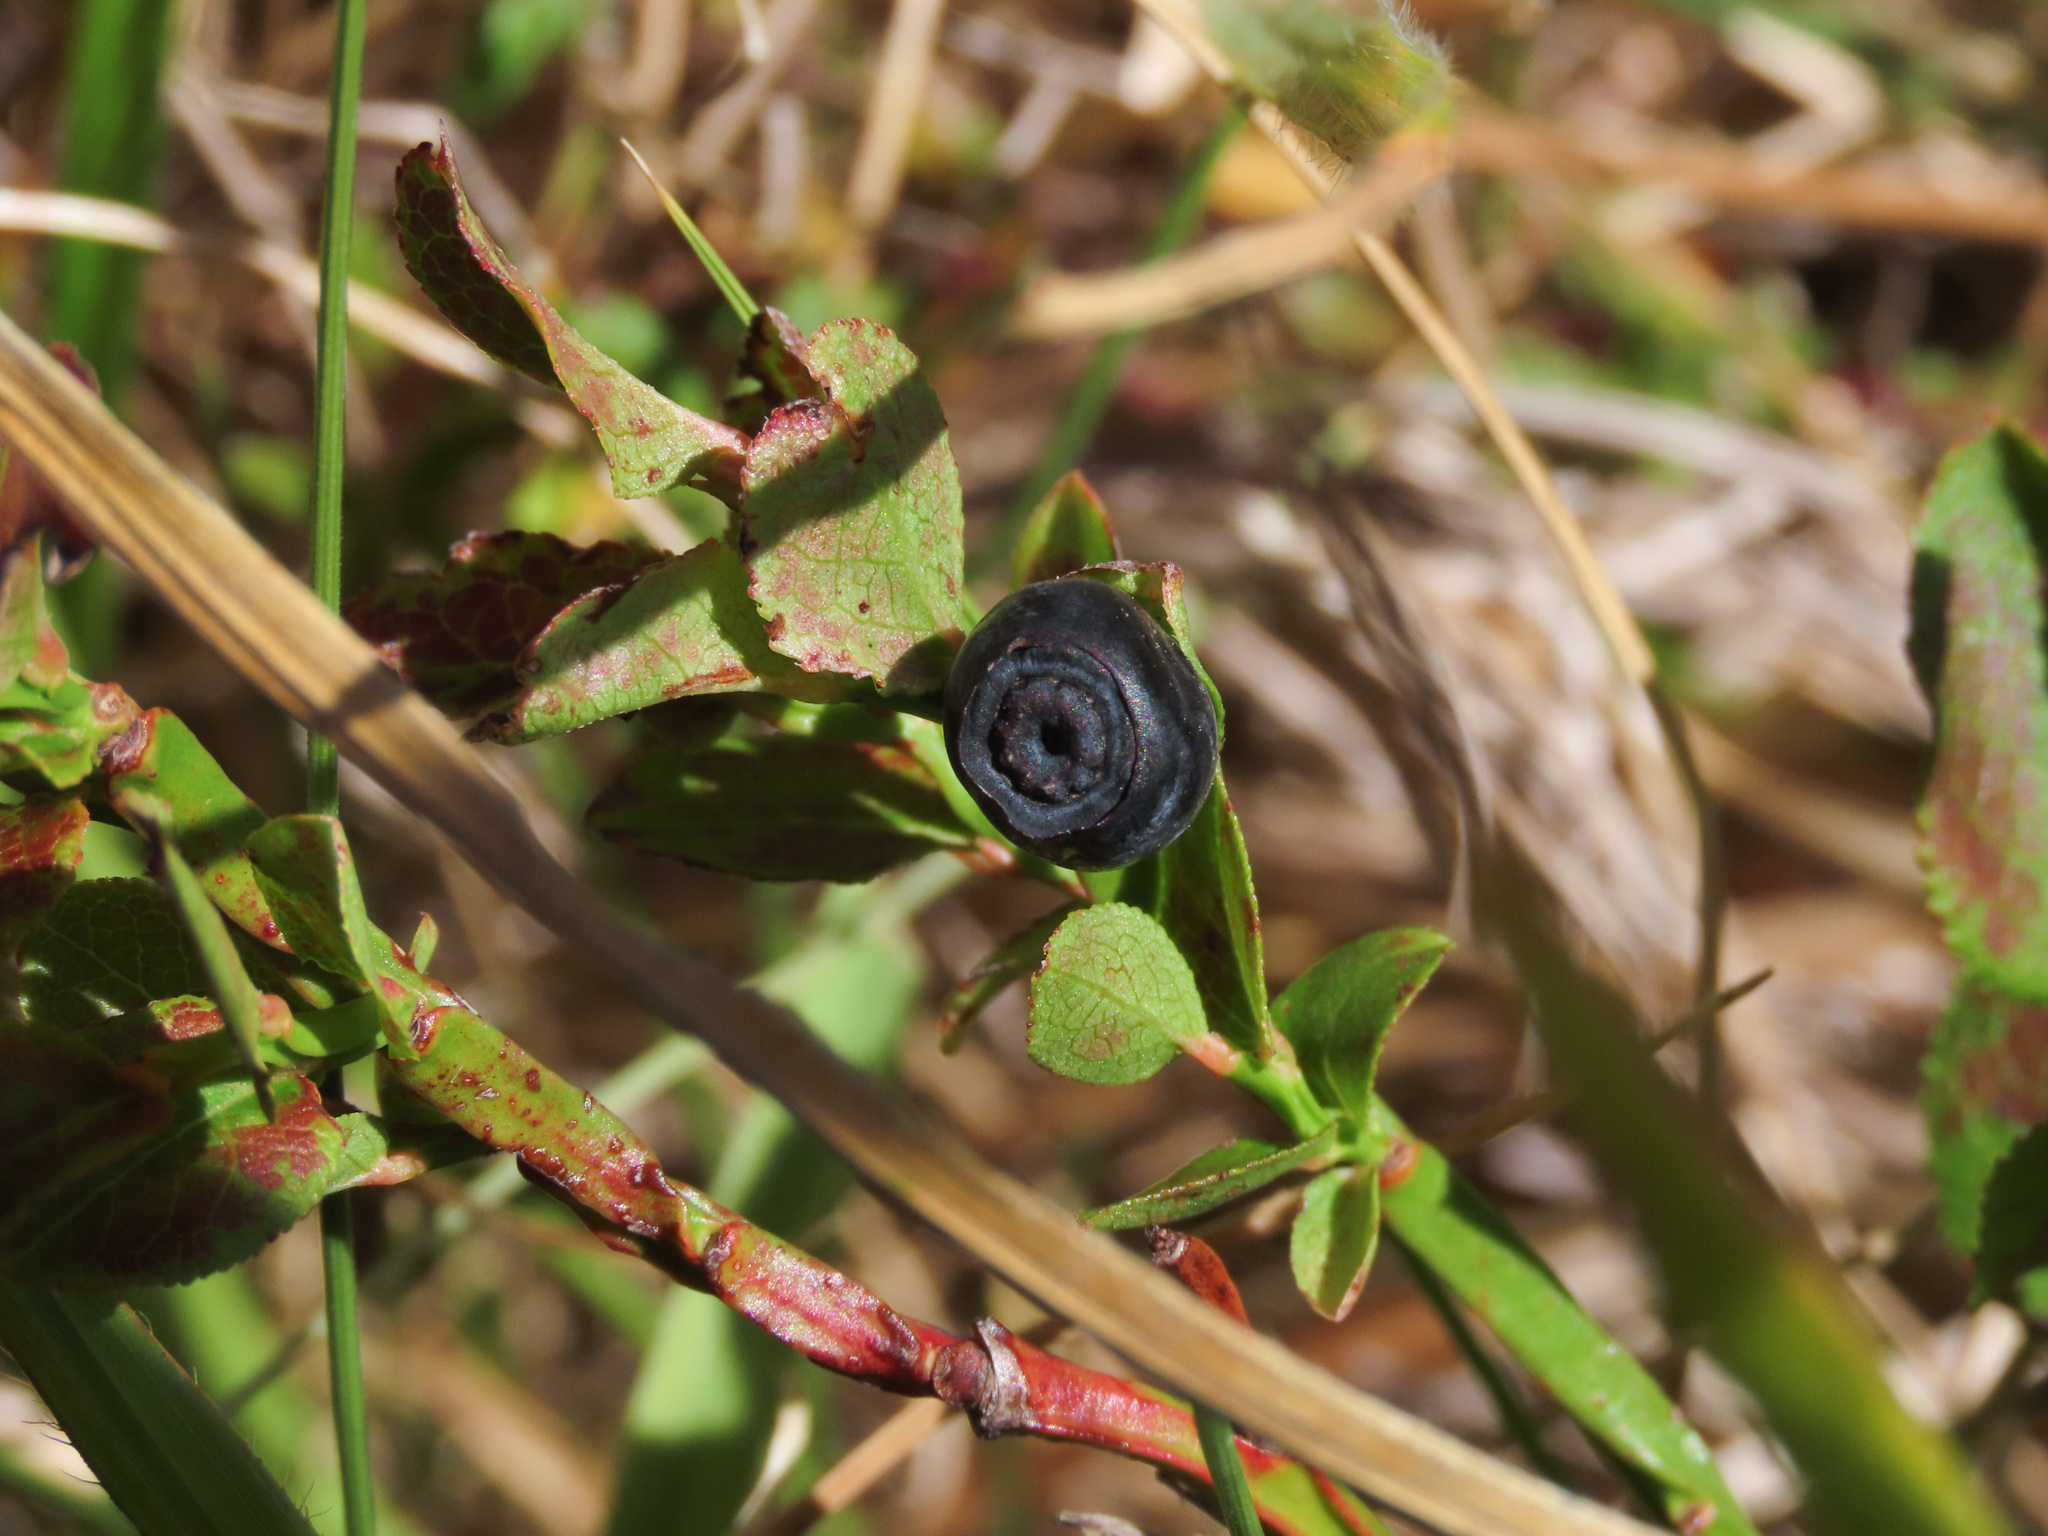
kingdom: Plantae
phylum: Tracheophyta
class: Magnoliopsida
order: Ericales
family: Ericaceae
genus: Vaccinium
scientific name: Vaccinium myrtillus
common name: Bilberry
